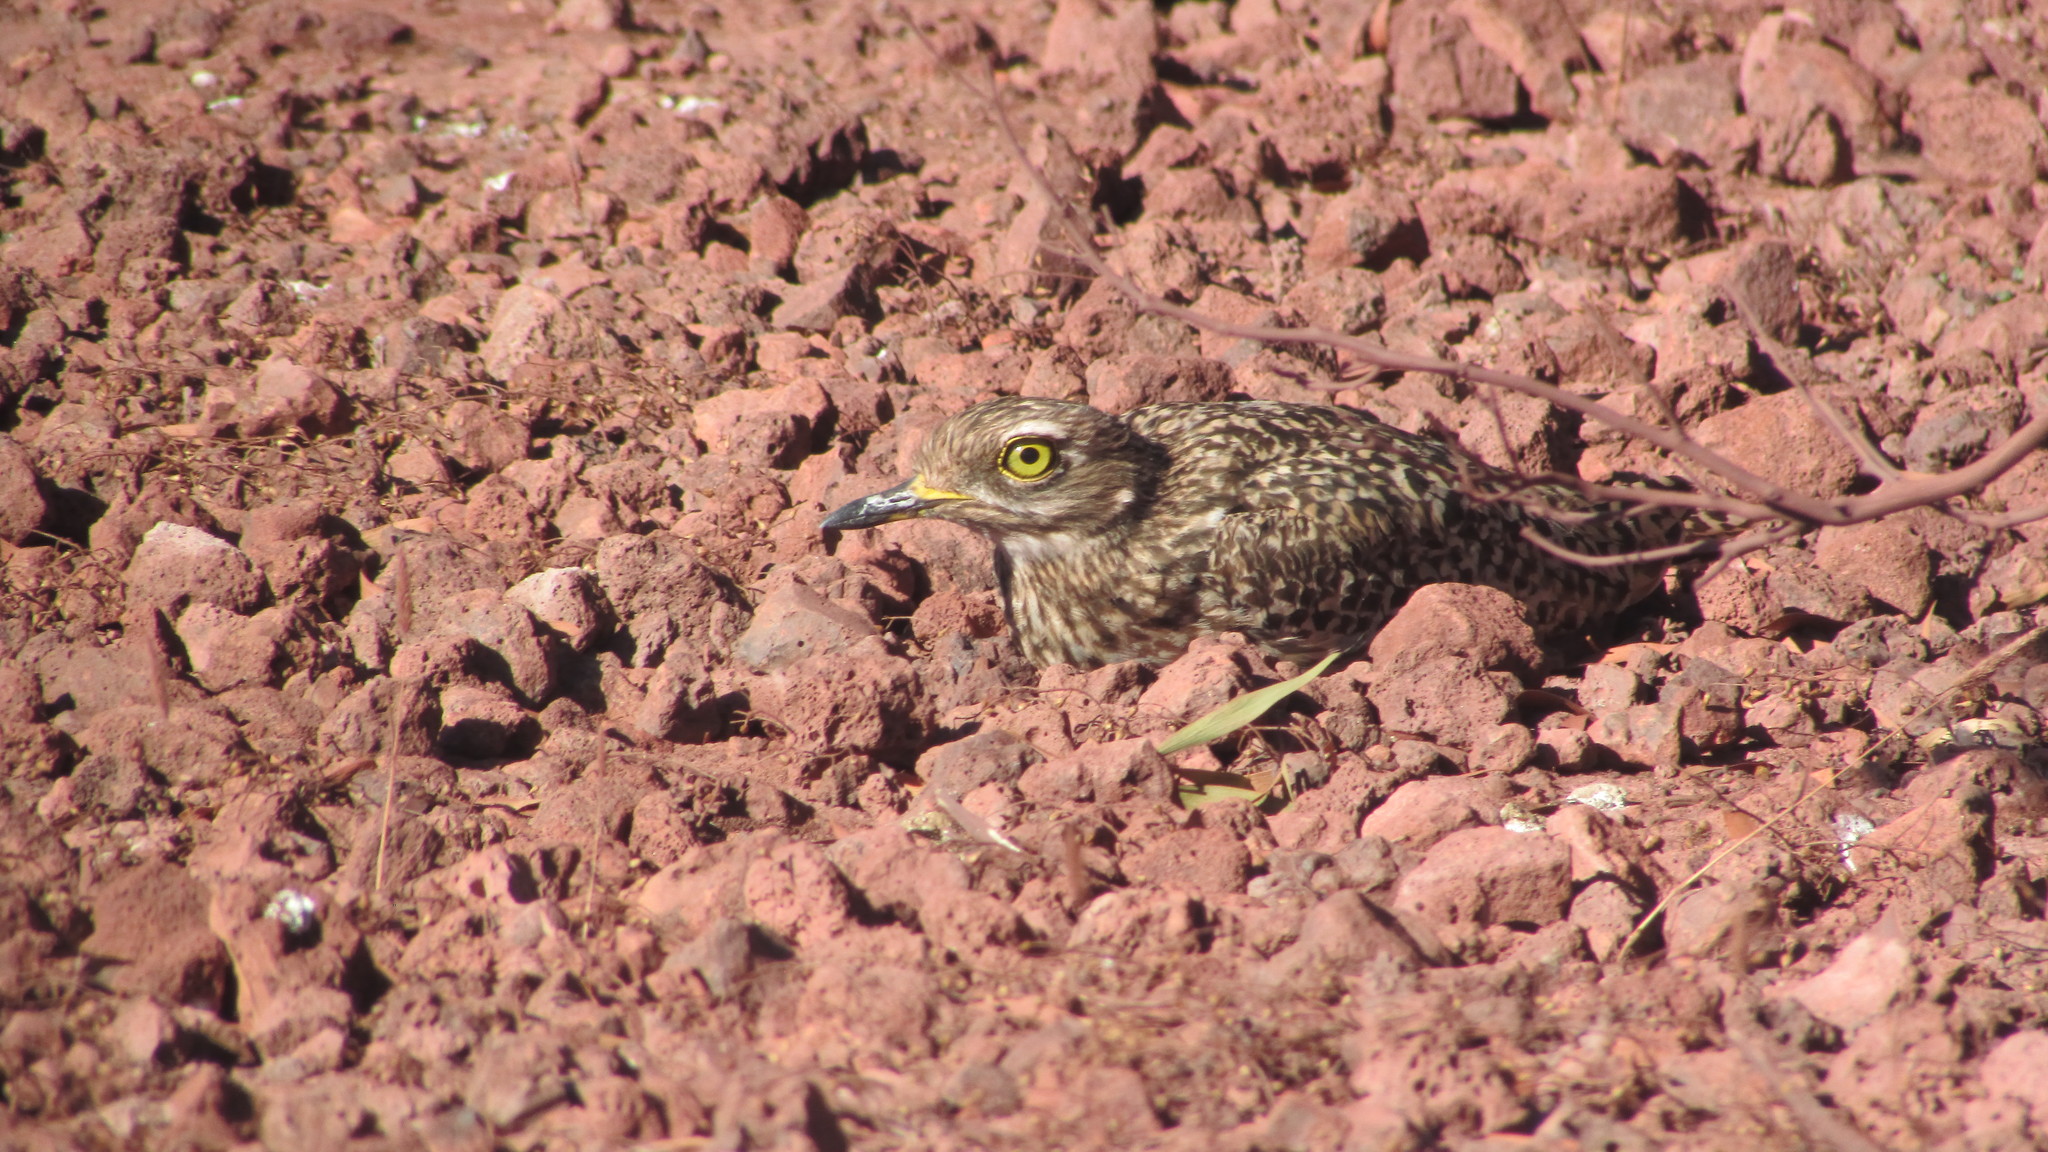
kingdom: Animalia
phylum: Chordata
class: Aves
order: Charadriiformes
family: Burhinidae
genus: Burhinus
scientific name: Burhinus capensis
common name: Spotted thick-knee
